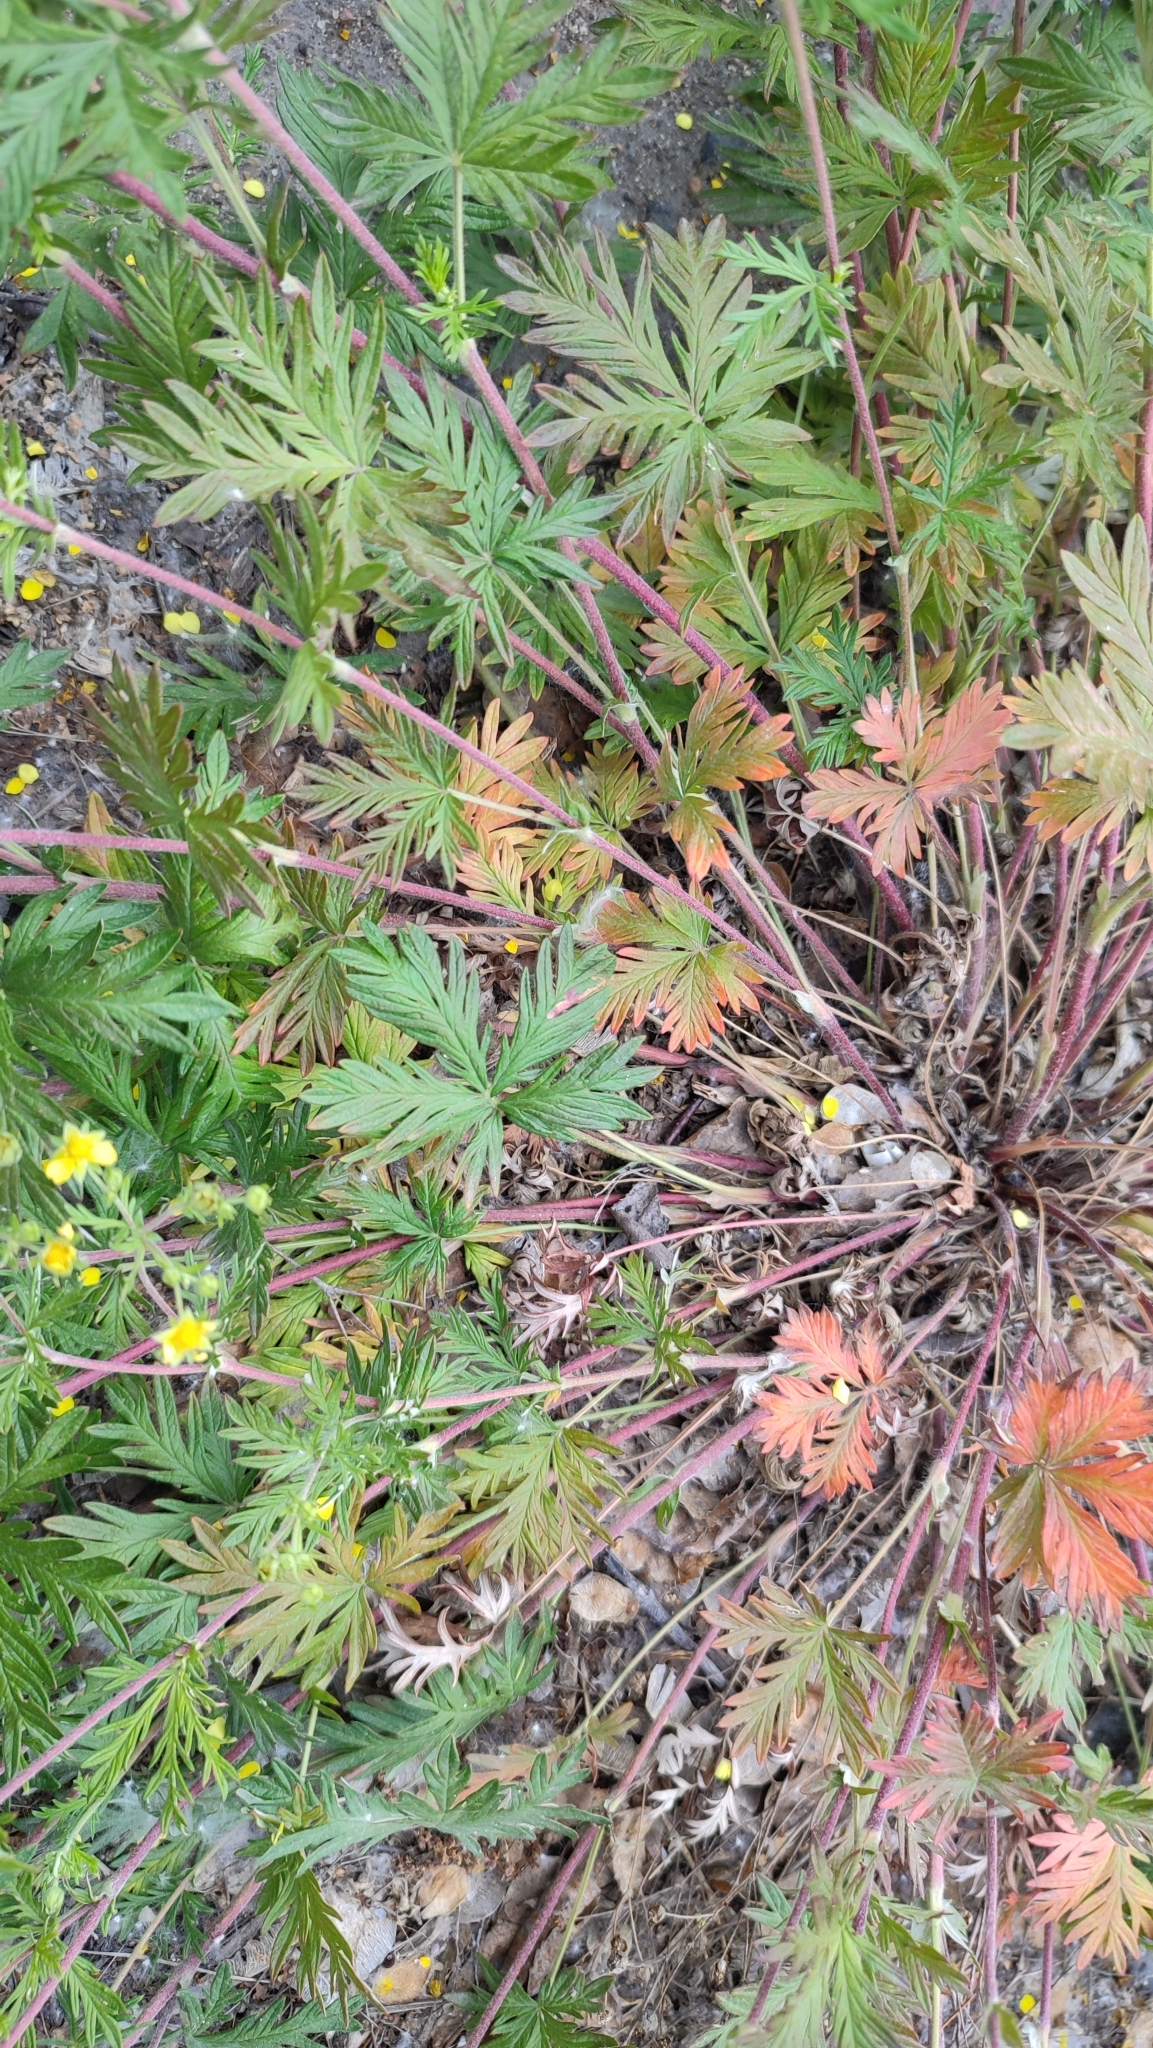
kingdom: Plantae
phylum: Tracheophyta
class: Magnoliopsida
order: Rosales
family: Rosaceae
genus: Potentilla
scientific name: Potentilla angarensis
